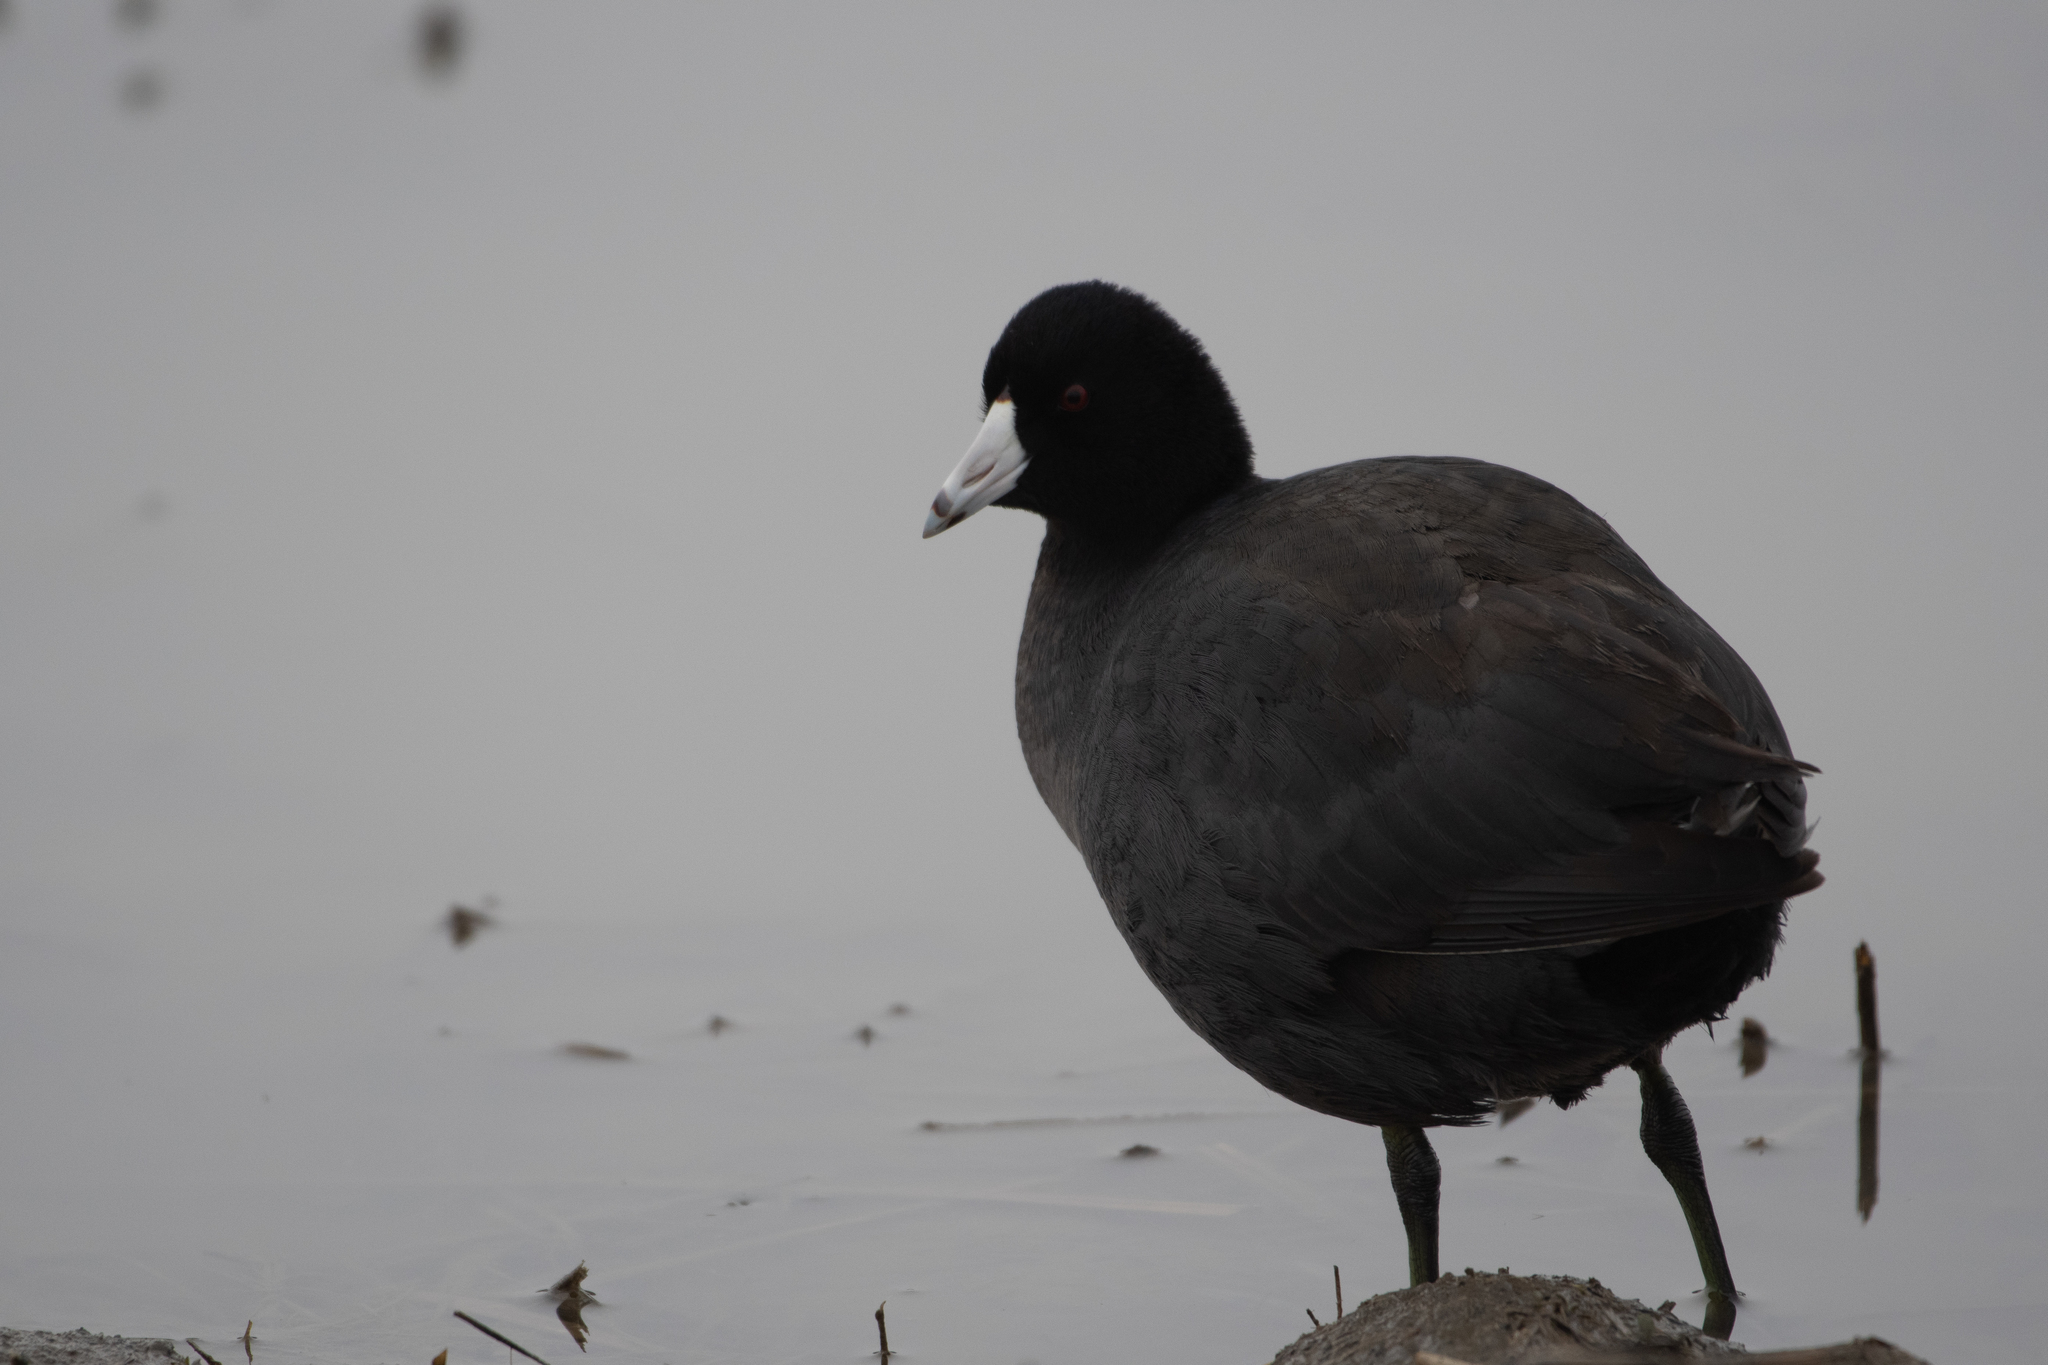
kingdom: Animalia
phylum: Chordata
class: Aves
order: Gruiformes
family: Rallidae
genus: Fulica
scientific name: Fulica americana
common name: American coot
